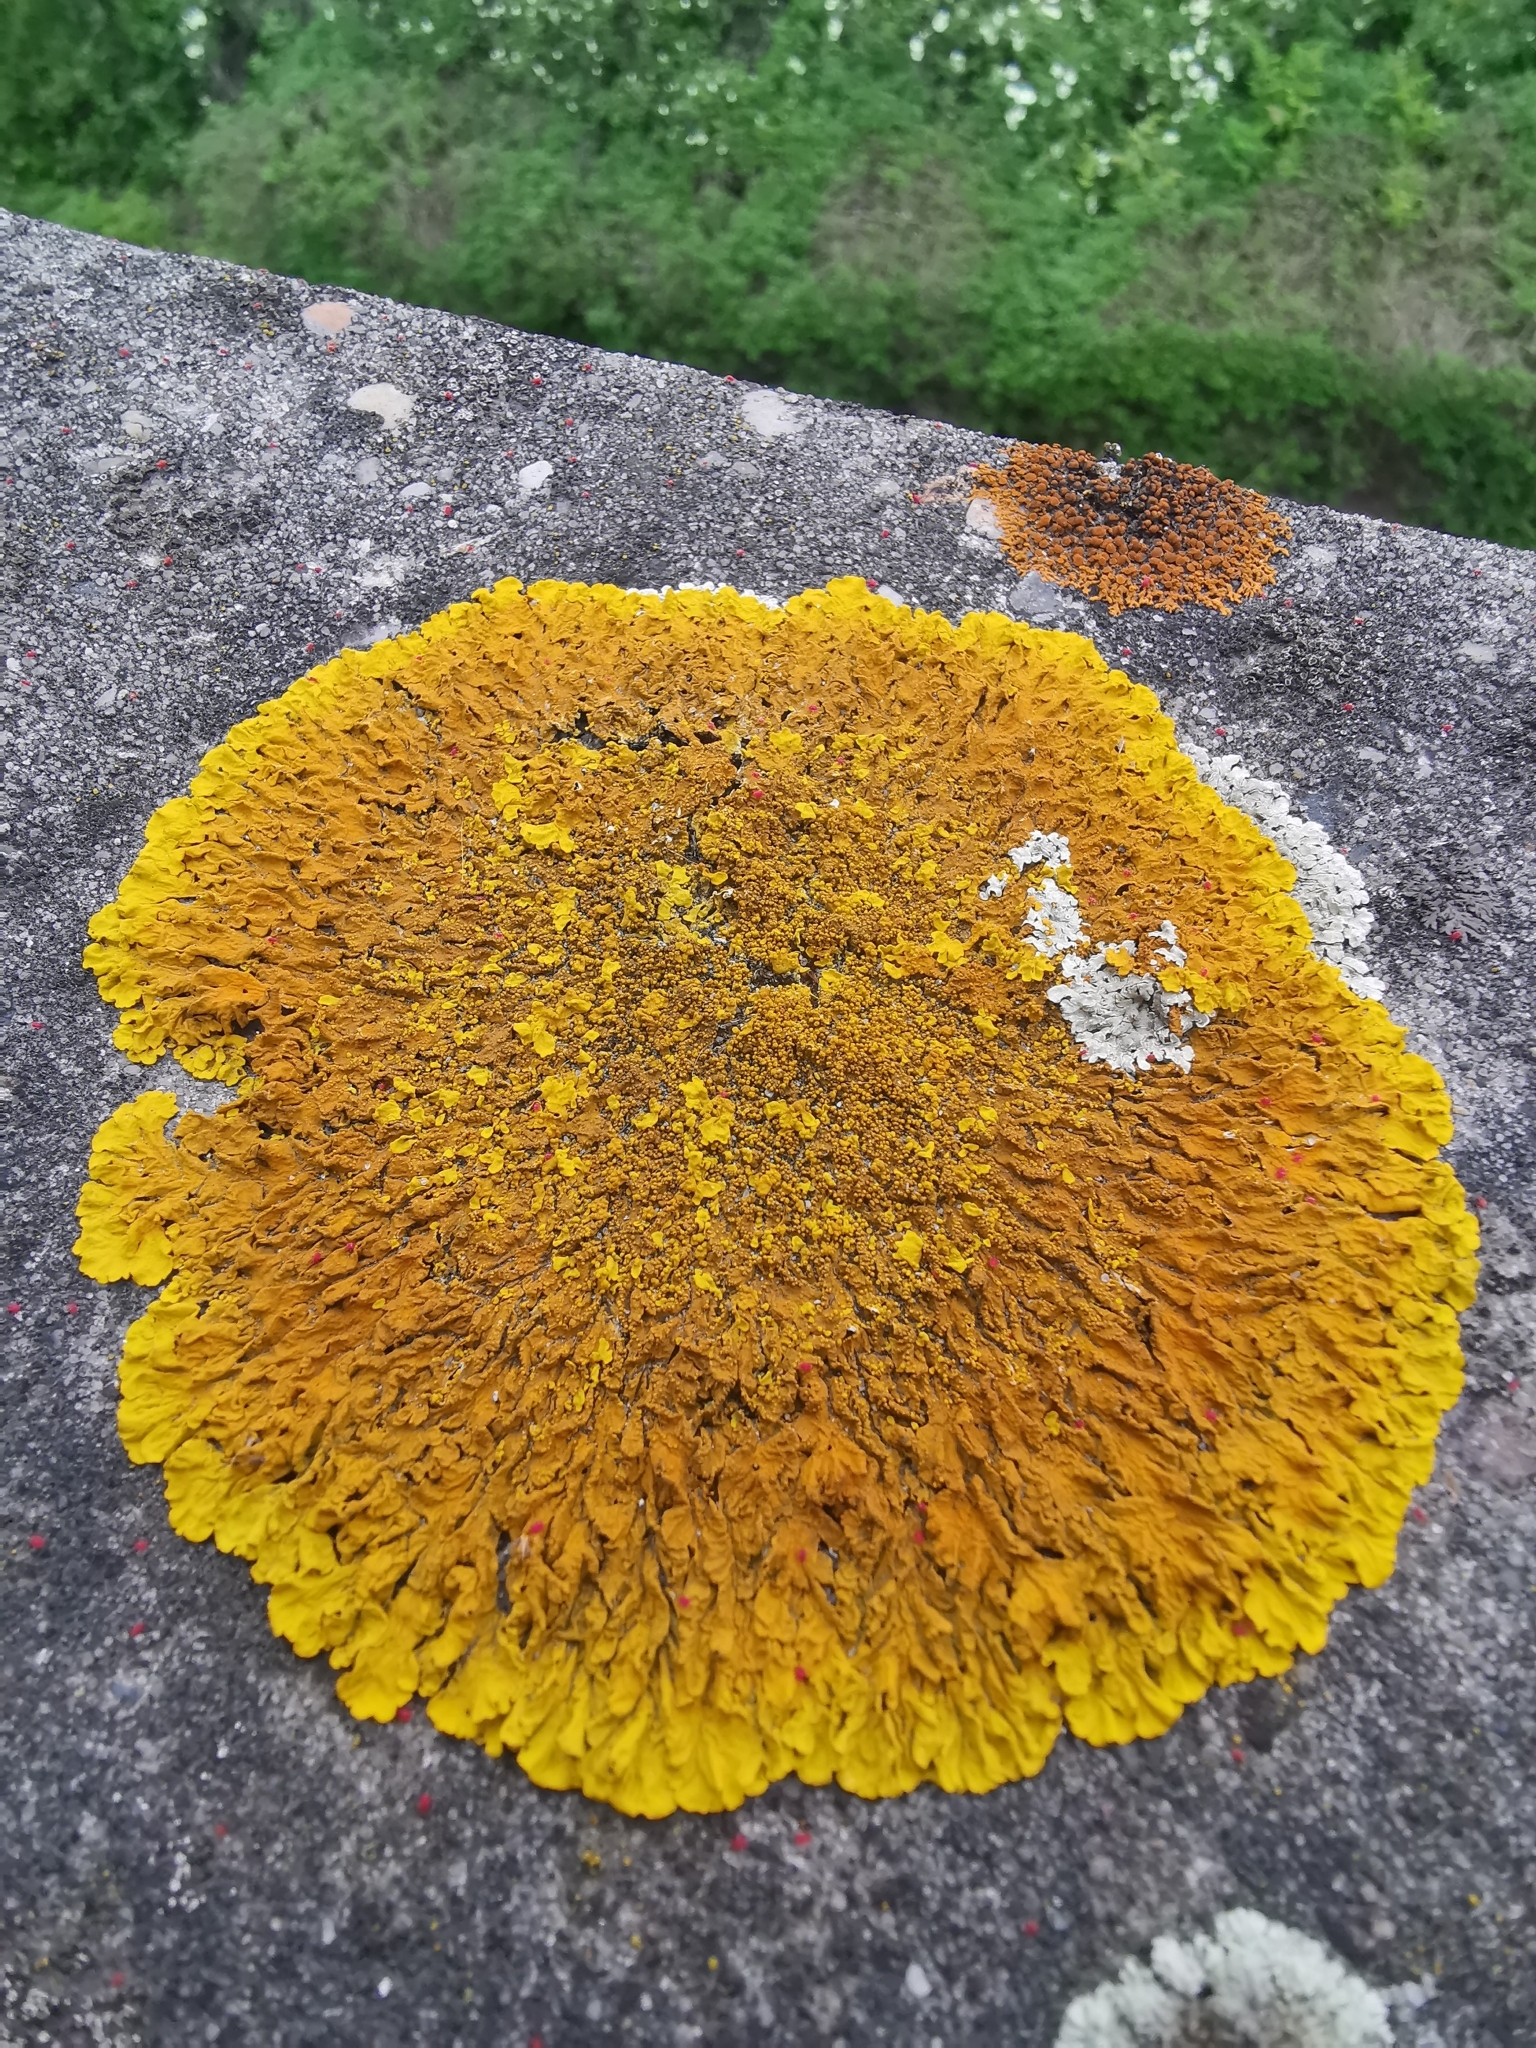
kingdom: Fungi
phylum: Ascomycota
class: Lecanoromycetes
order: Teloschistales
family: Teloschistaceae
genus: Xanthoria
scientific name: Xanthoria calcicola
